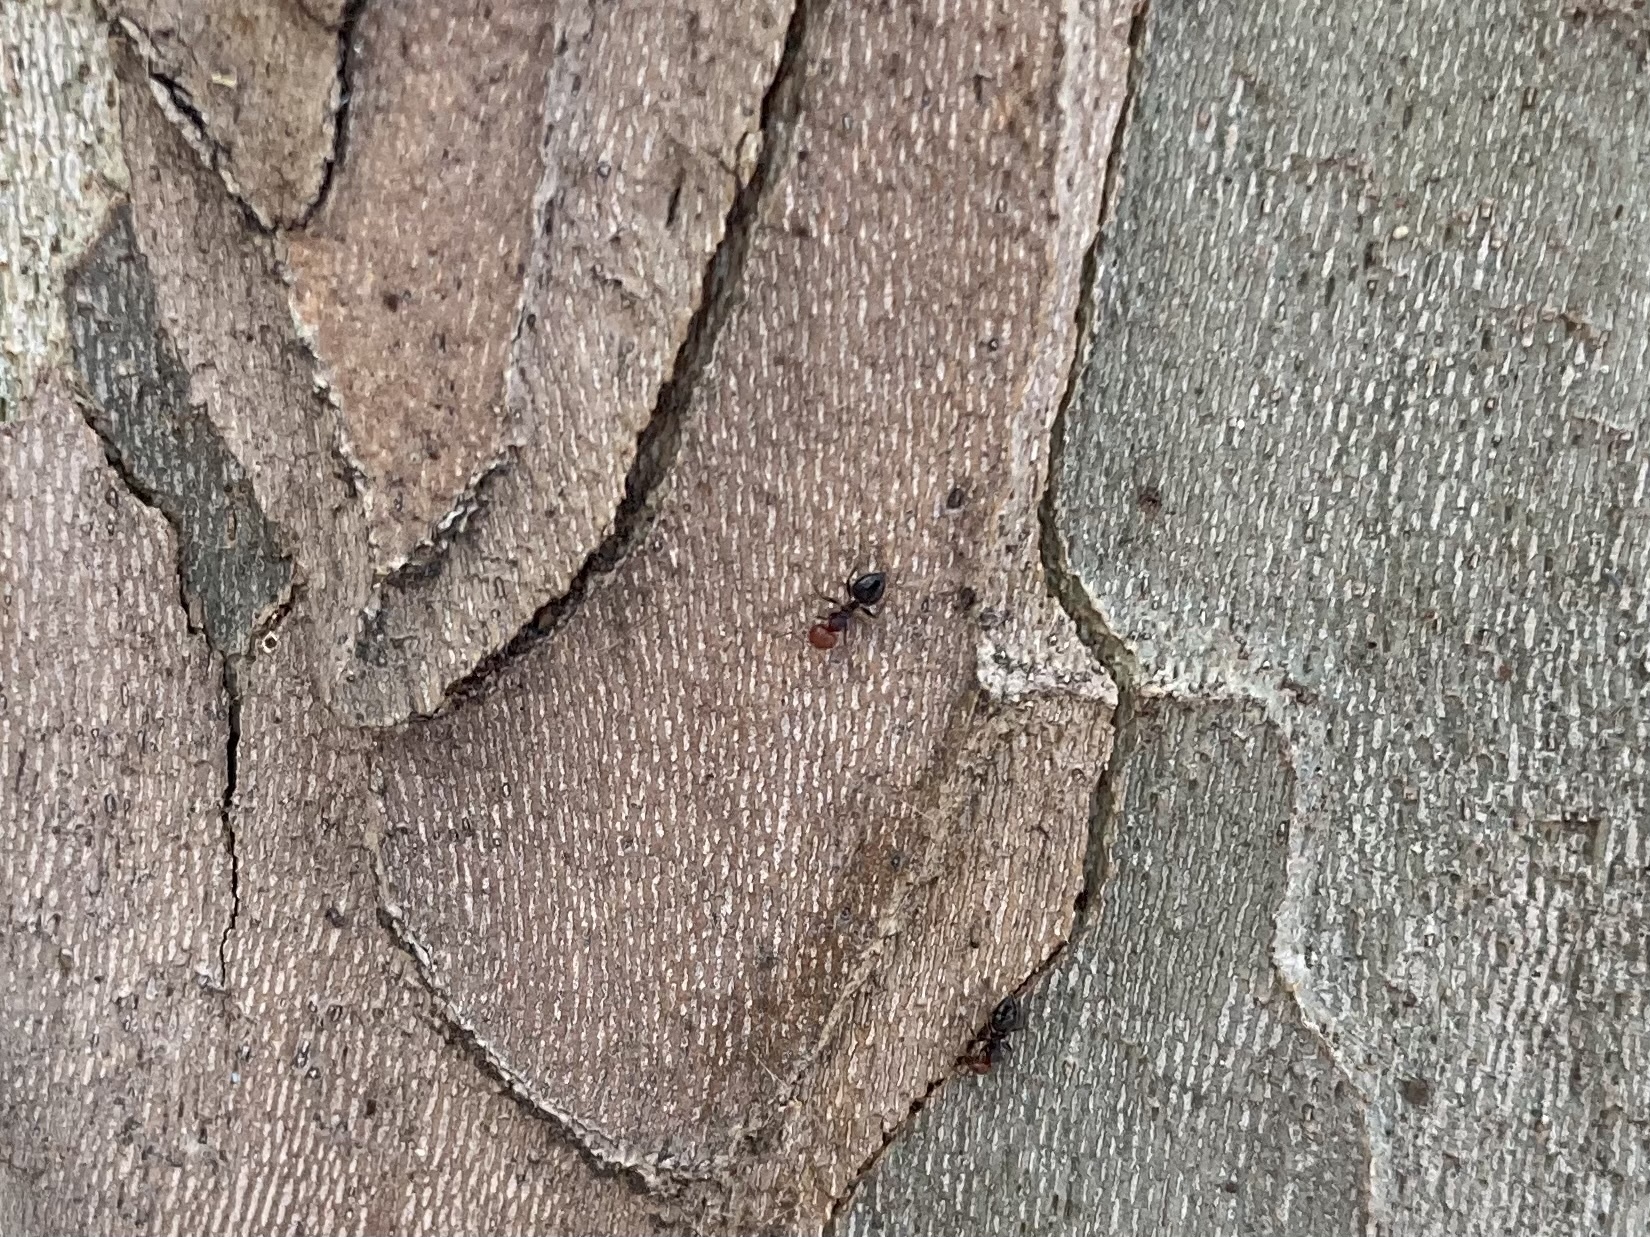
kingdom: Animalia
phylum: Arthropoda
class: Insecta
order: Hymenoptera
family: Formicidae
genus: Crematogaster
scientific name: Crematogaster scutellaris
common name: Fourmi du liège
